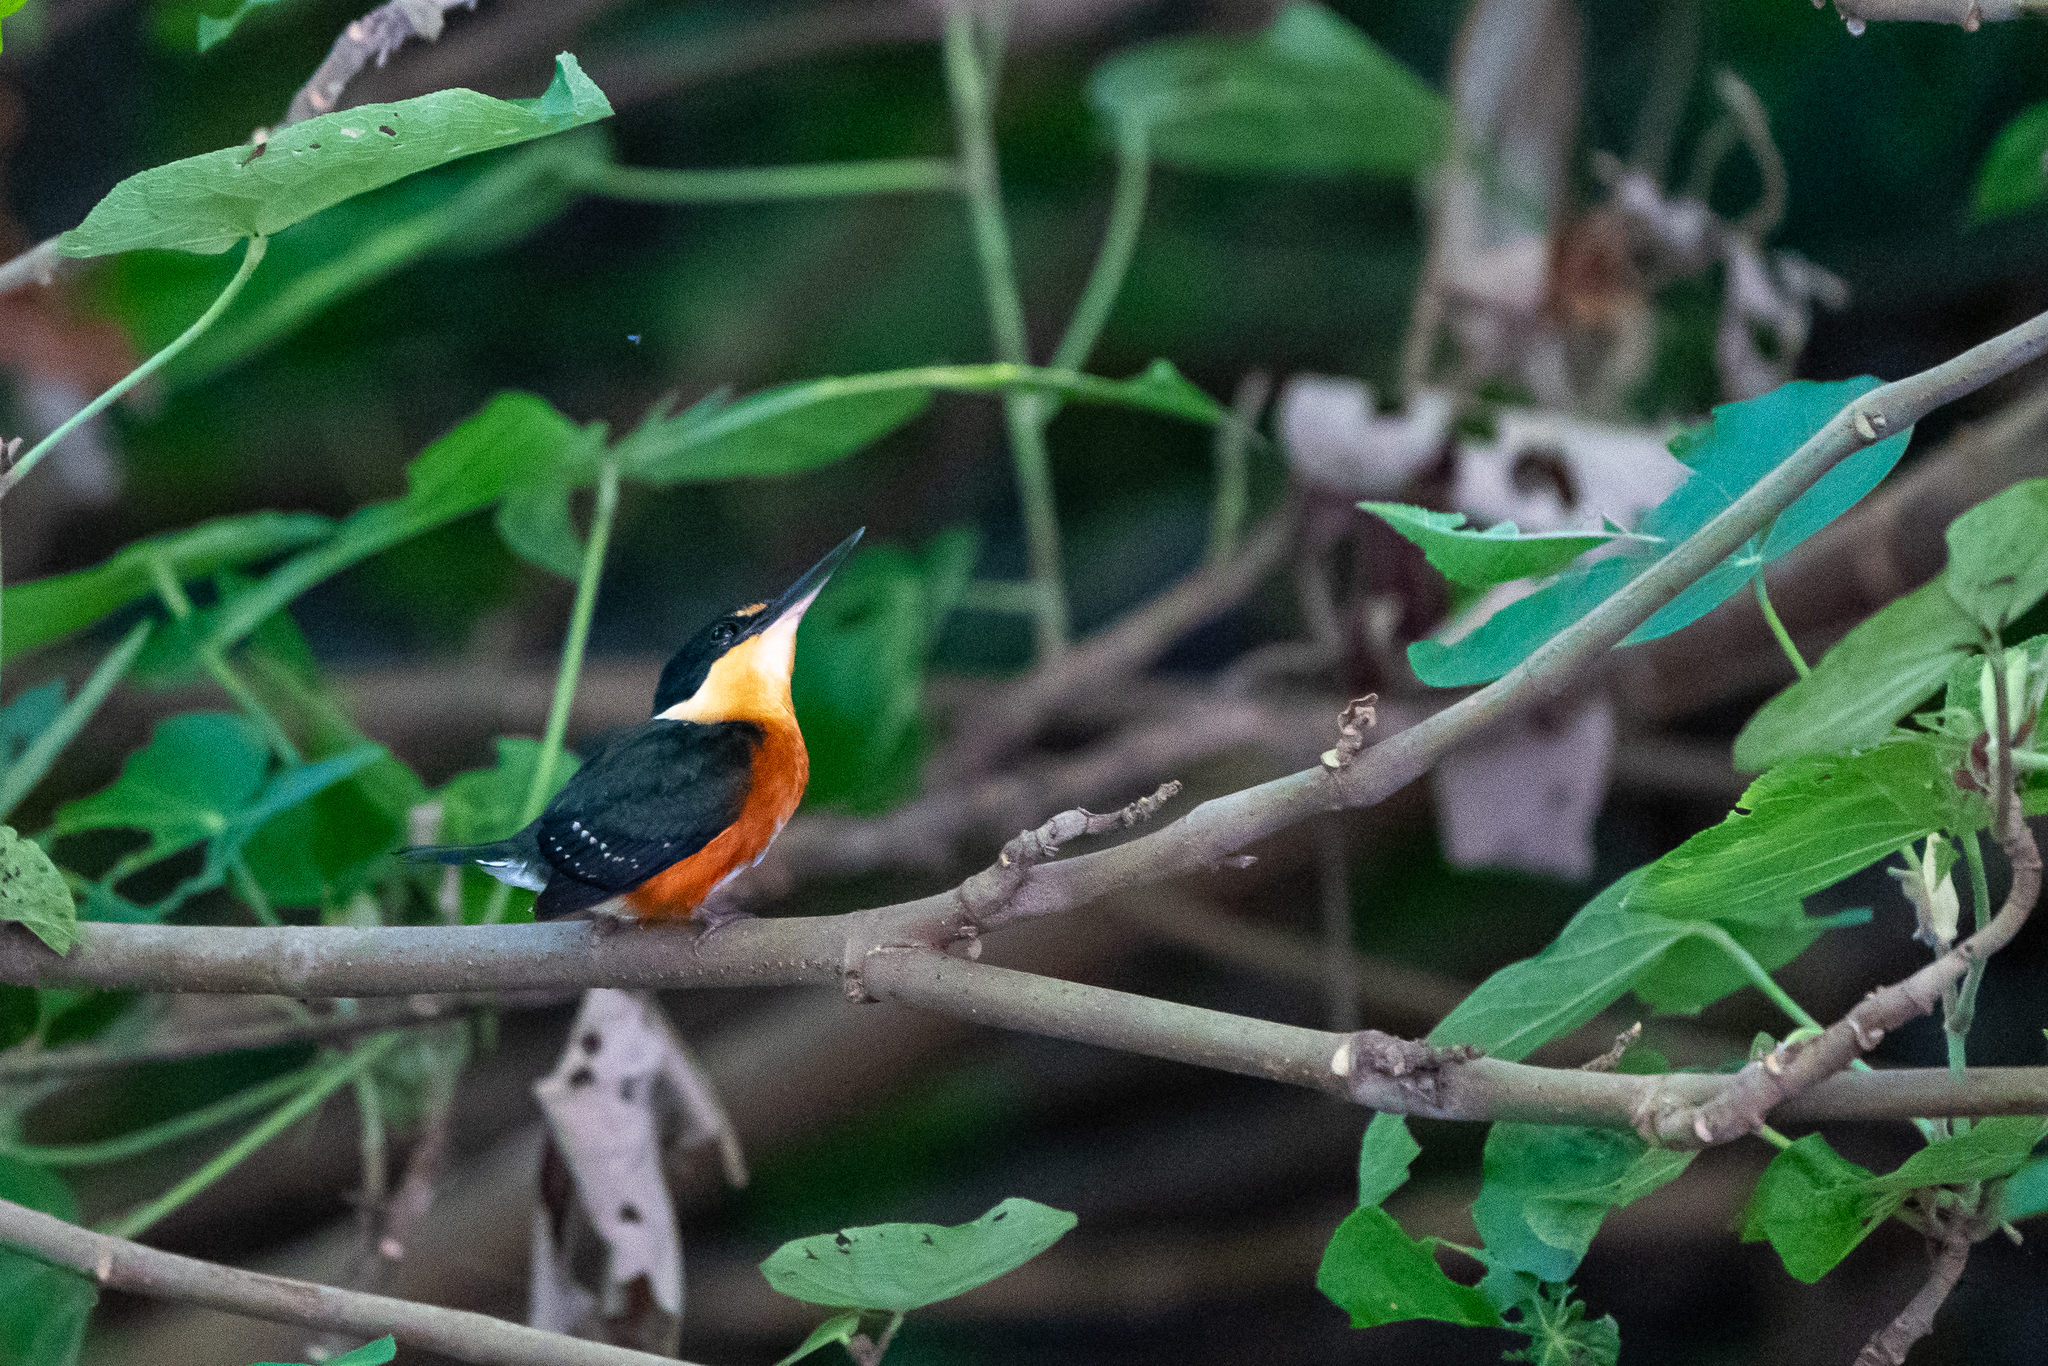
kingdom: Animalia
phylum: Chordata
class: Aves
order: Coraciiformes
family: Alcedinidae
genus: Chloroceryle
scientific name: Chloroceryle aenea
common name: American pygmy kingfisher
